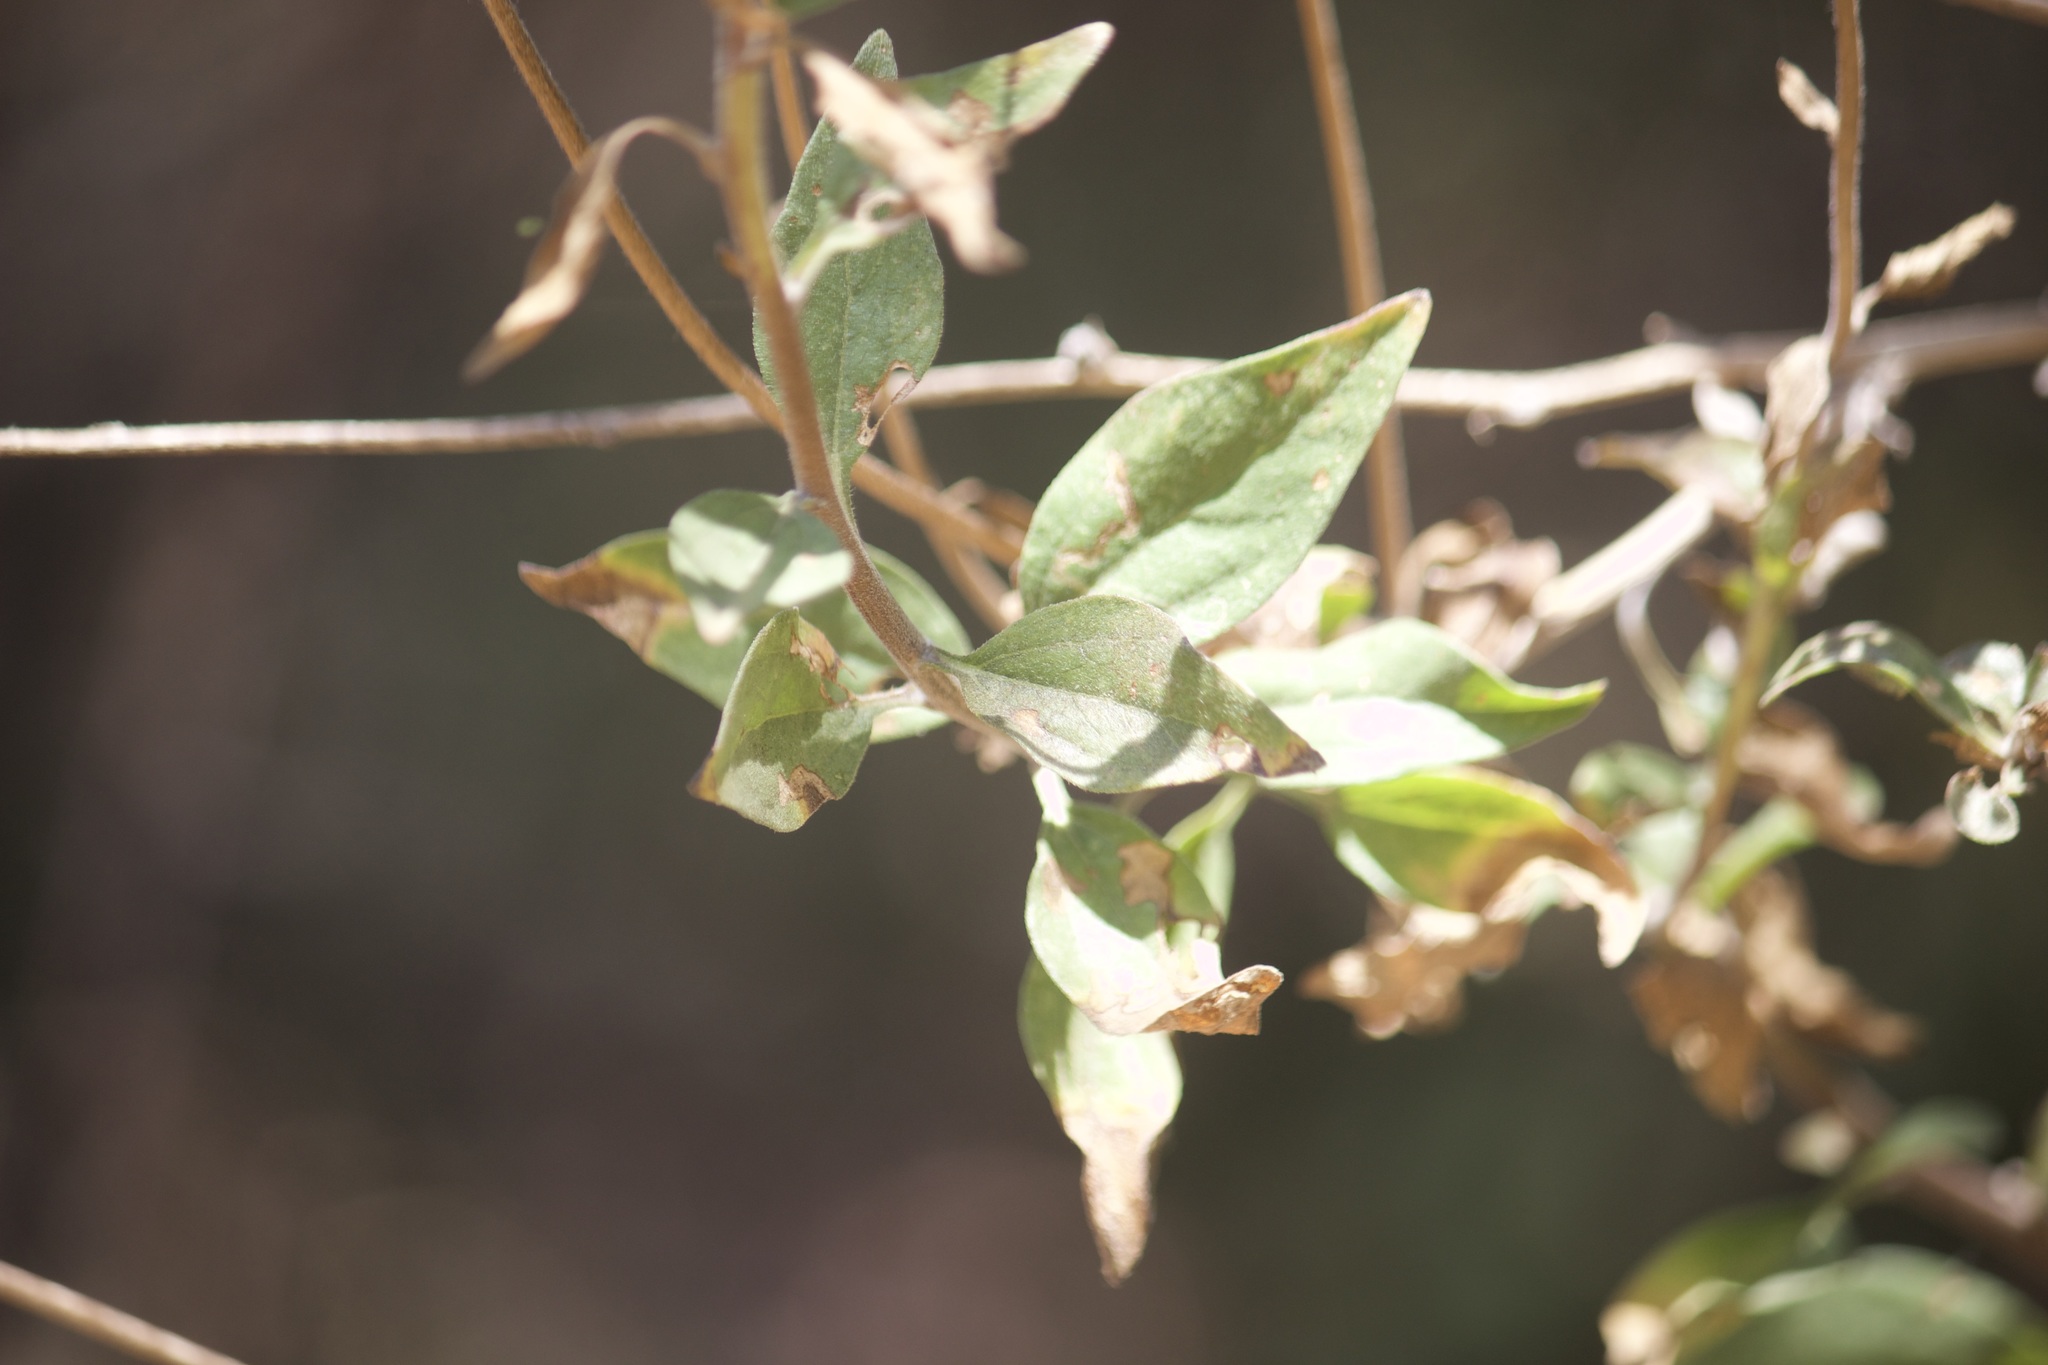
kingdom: Plantae
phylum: Tracheophyta
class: Magnoliopsida
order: Asterales
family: Asteraceae
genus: Encelia
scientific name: Encelia californica
